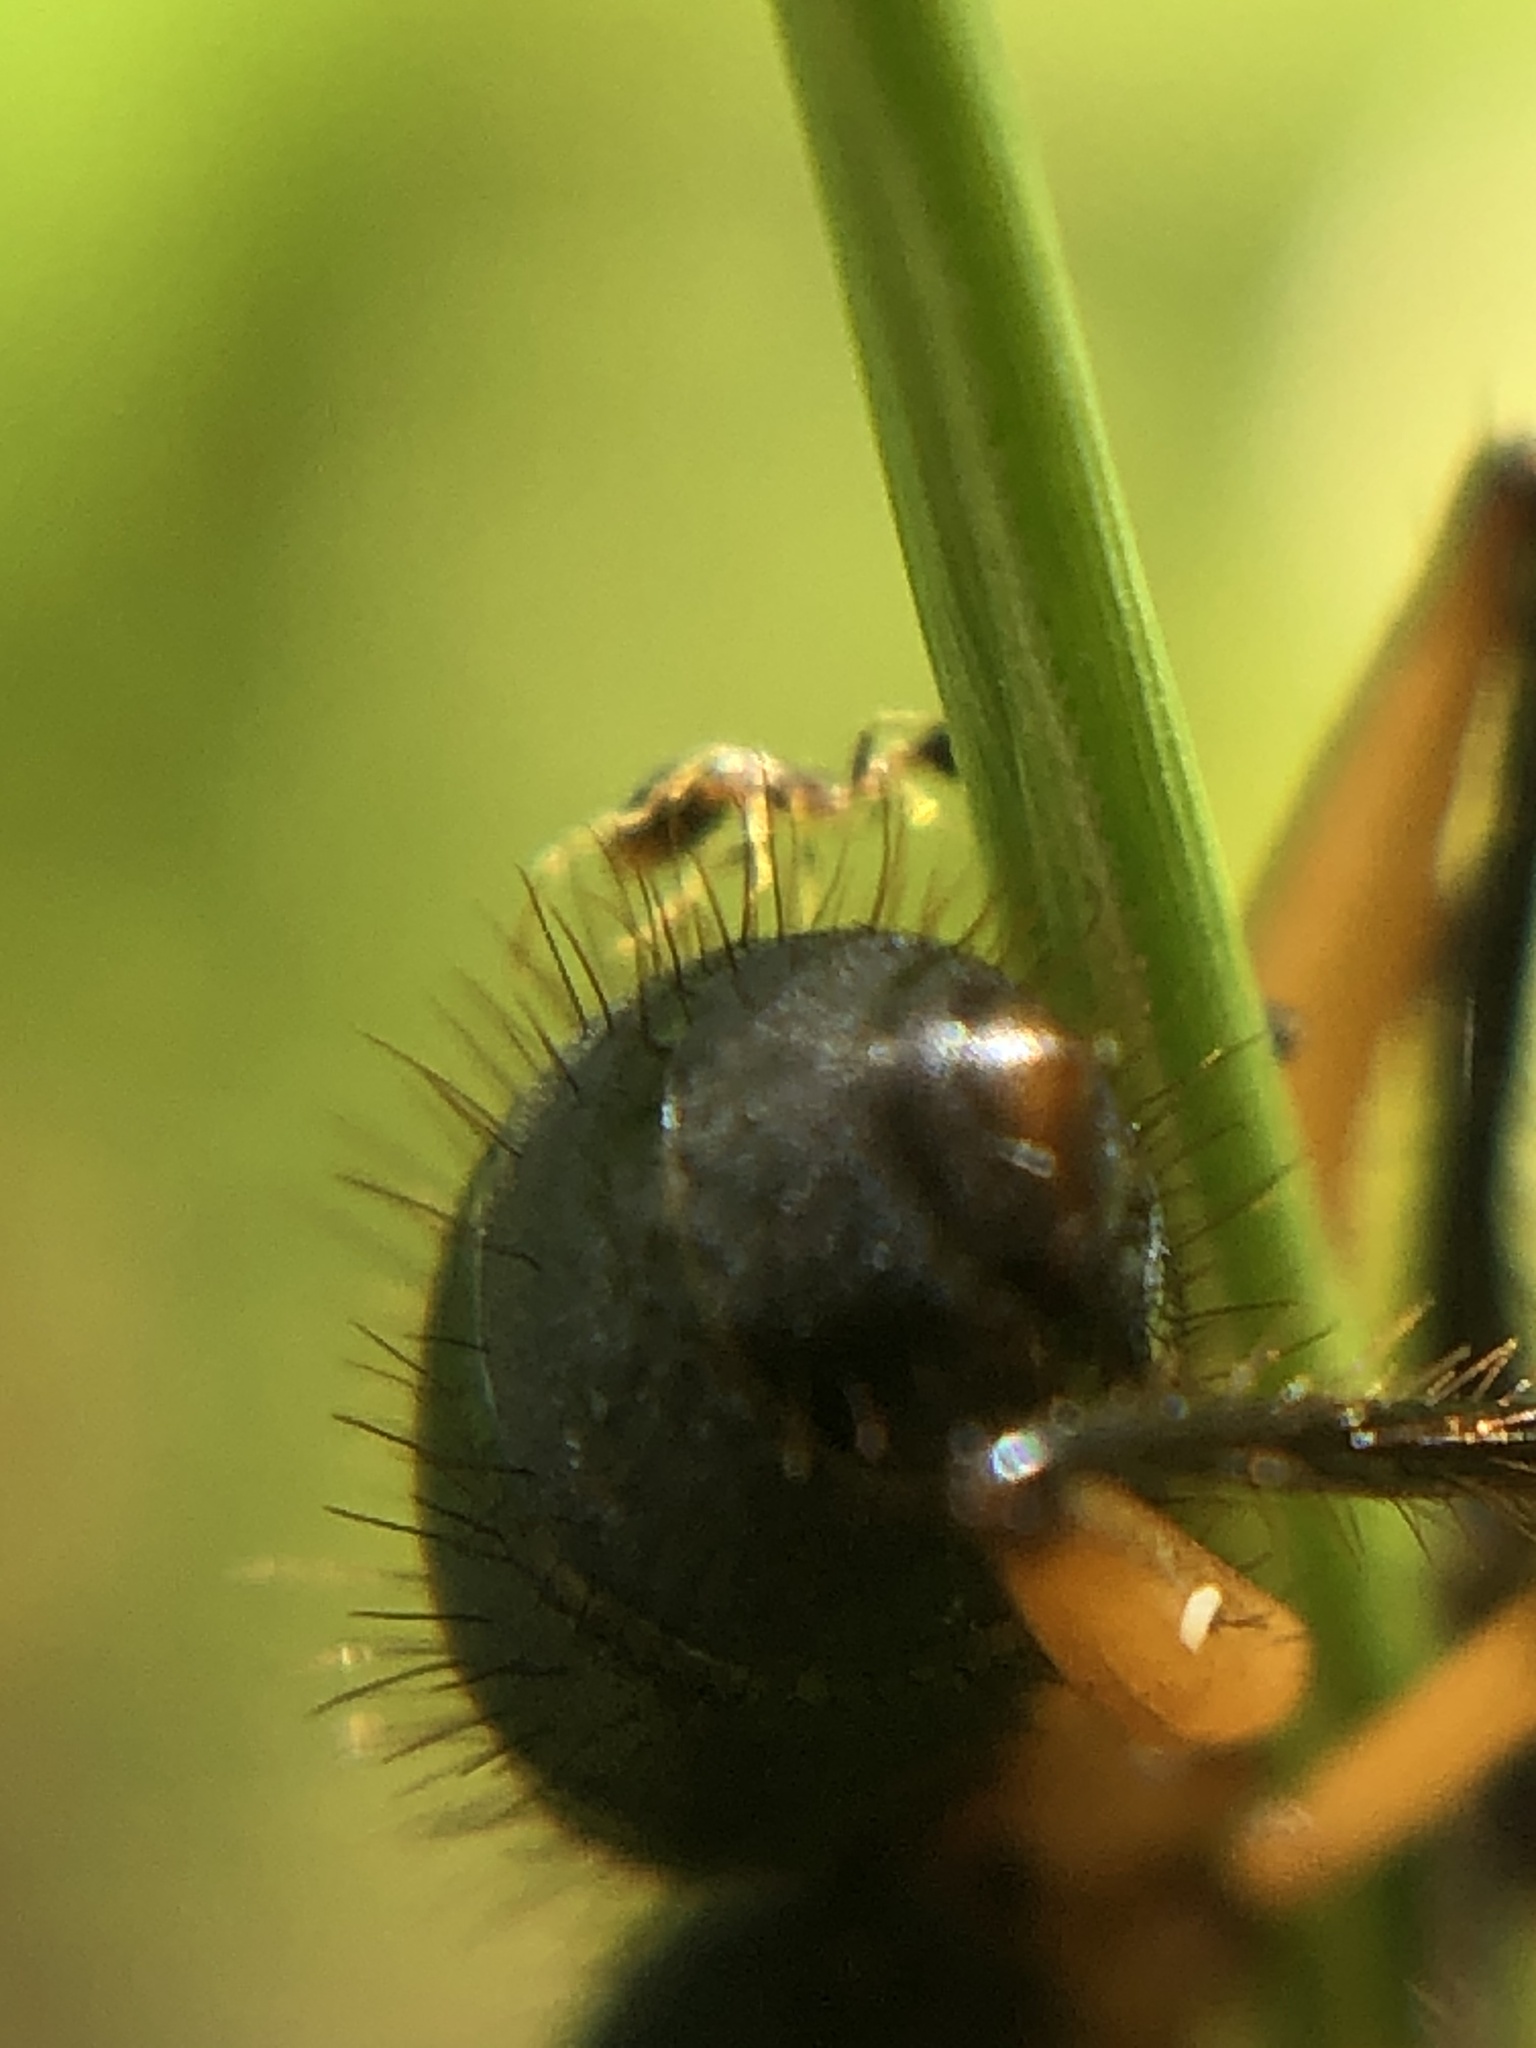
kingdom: Animalia
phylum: Arthropoda
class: Insecta
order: Hymenoptera
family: Formicidae
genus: Monomorium
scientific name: Monomorium floricola
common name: Bicolored trailing ant
